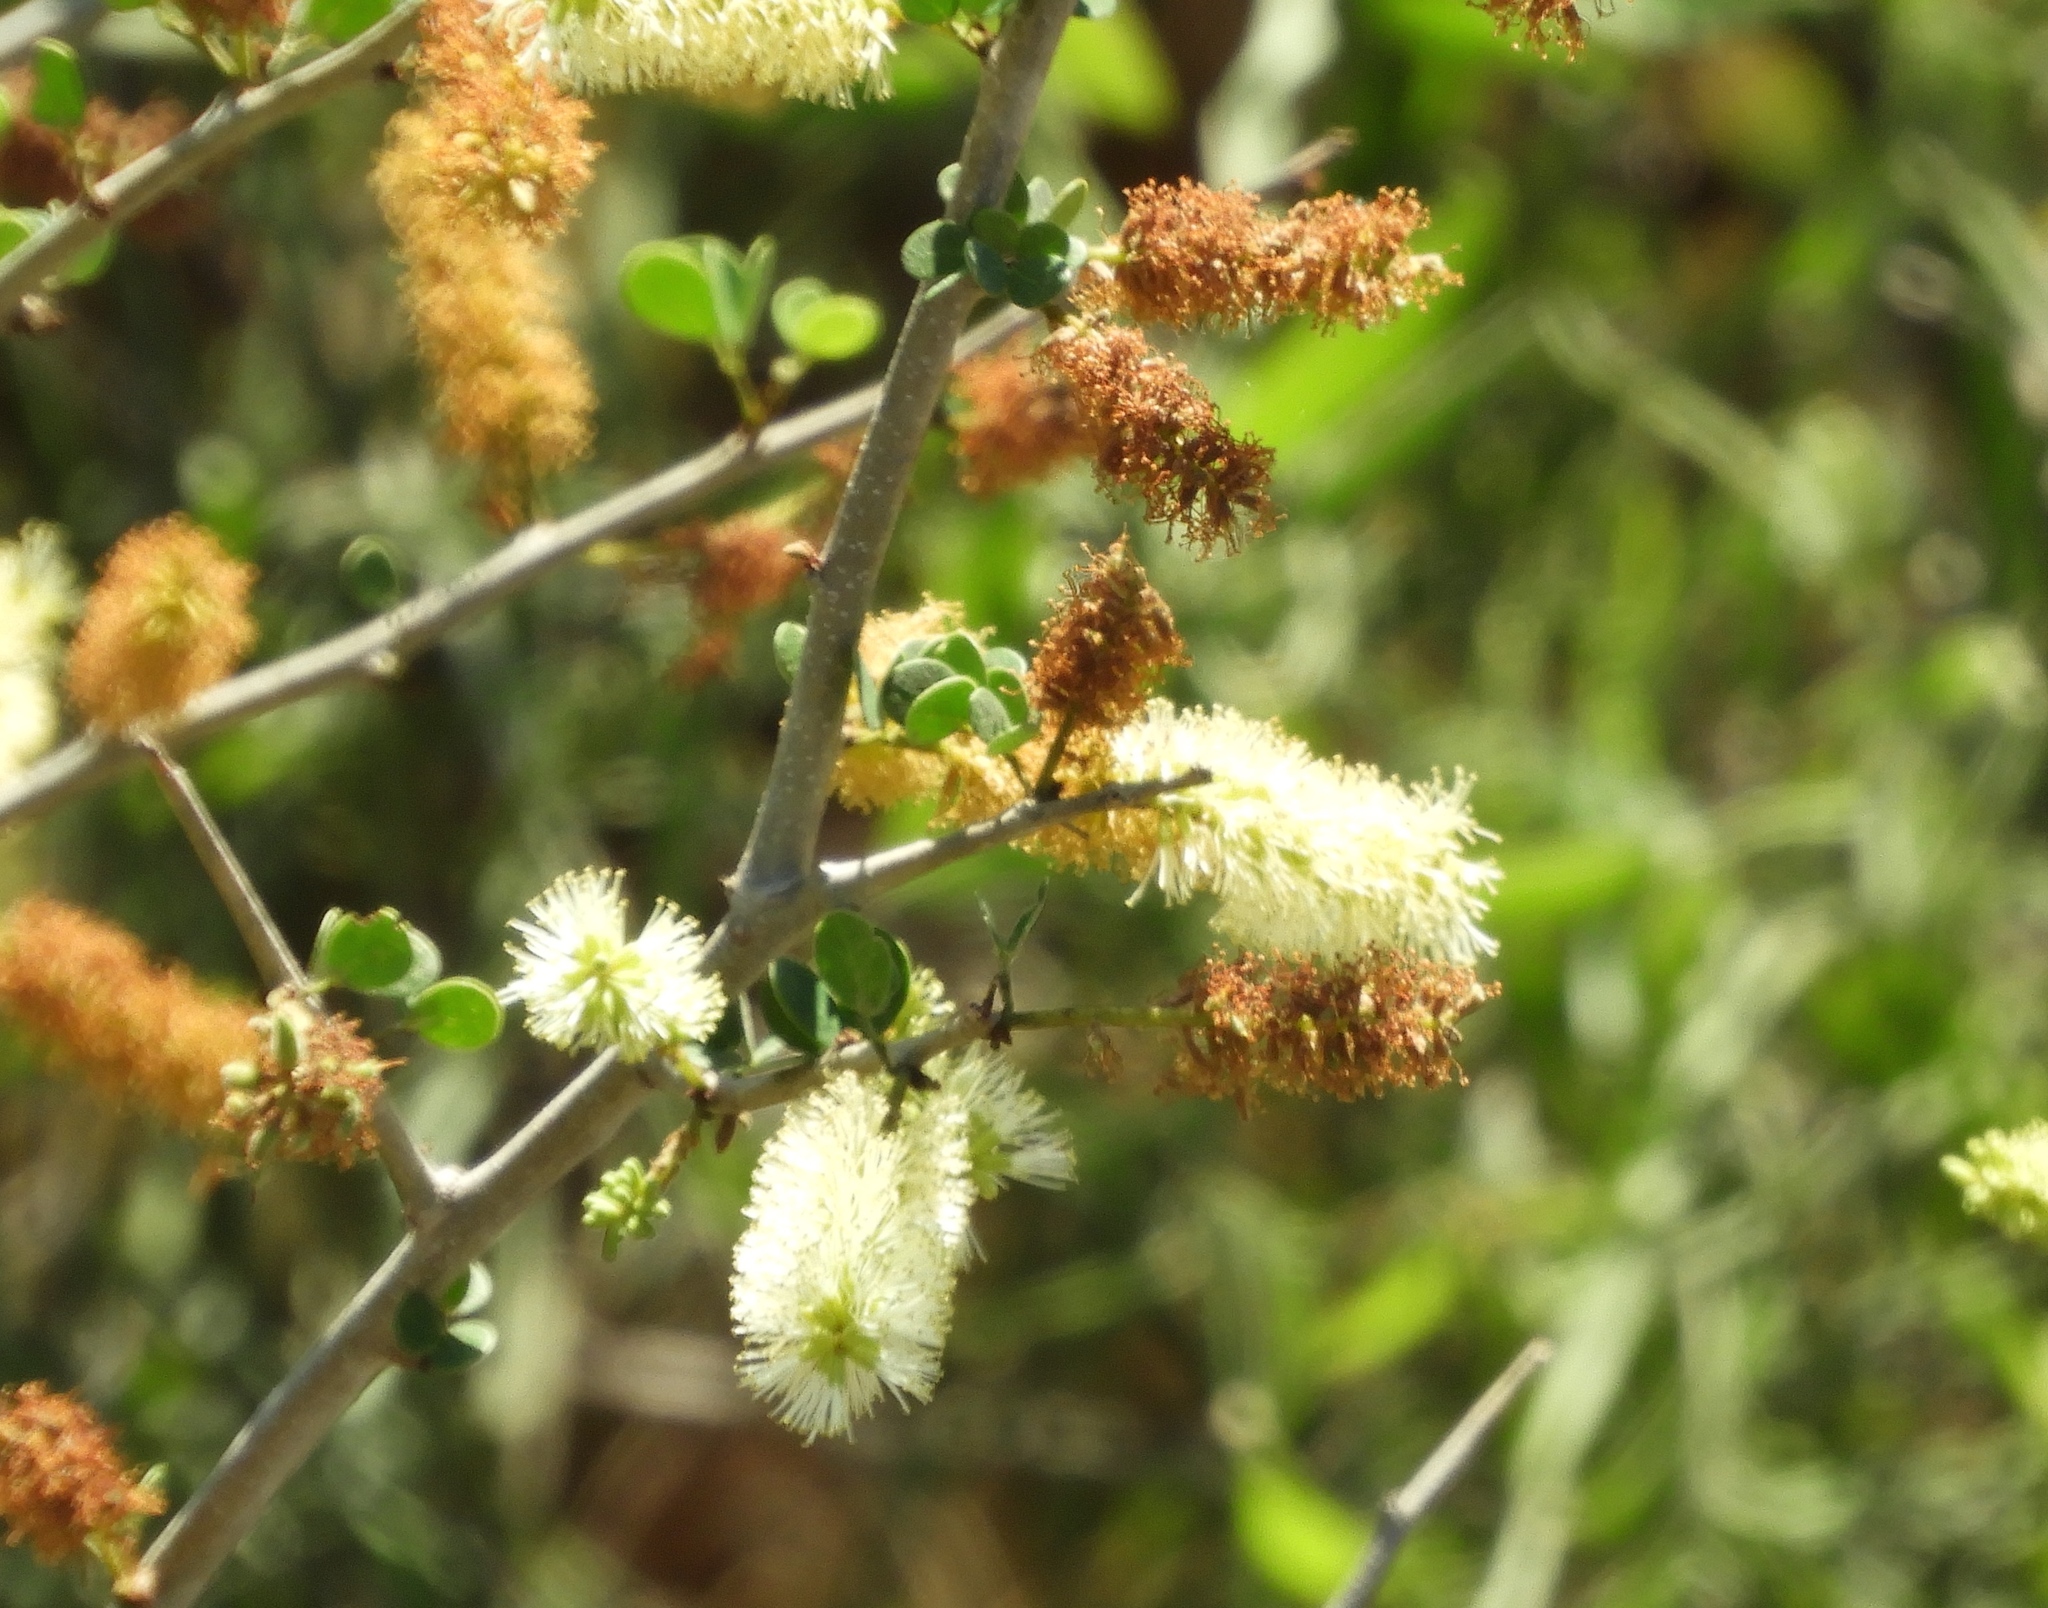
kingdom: Plantae
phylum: Tracheophyta
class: Magnoliopsida
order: Fabales
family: Fabaceae
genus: Microlobius
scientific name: Microlobius foetidus
